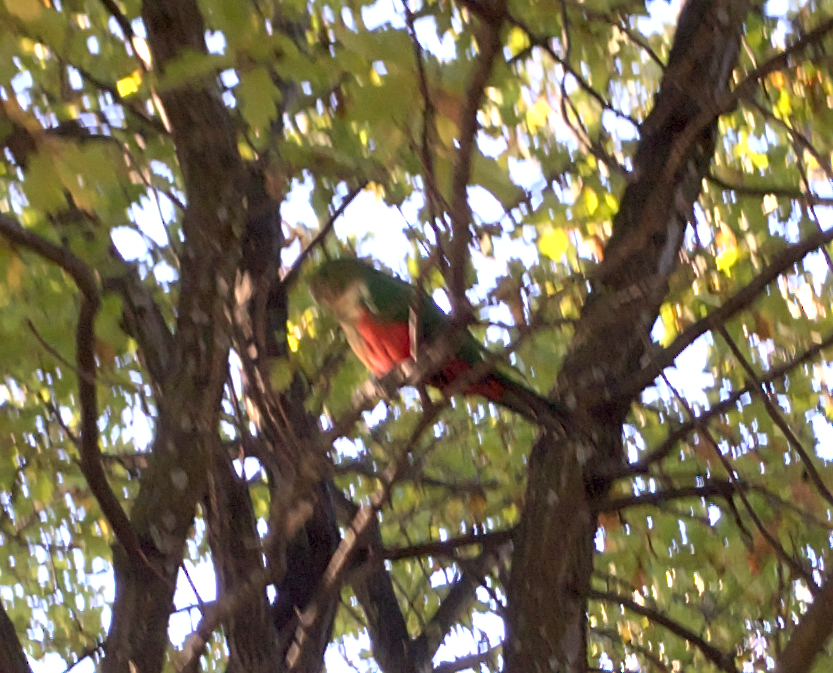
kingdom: Animalia
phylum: Chordata
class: Aves
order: Psittaciformes
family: Psittacidae
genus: Alisterus
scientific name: Alisterus scapularis
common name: Australian king parrot
